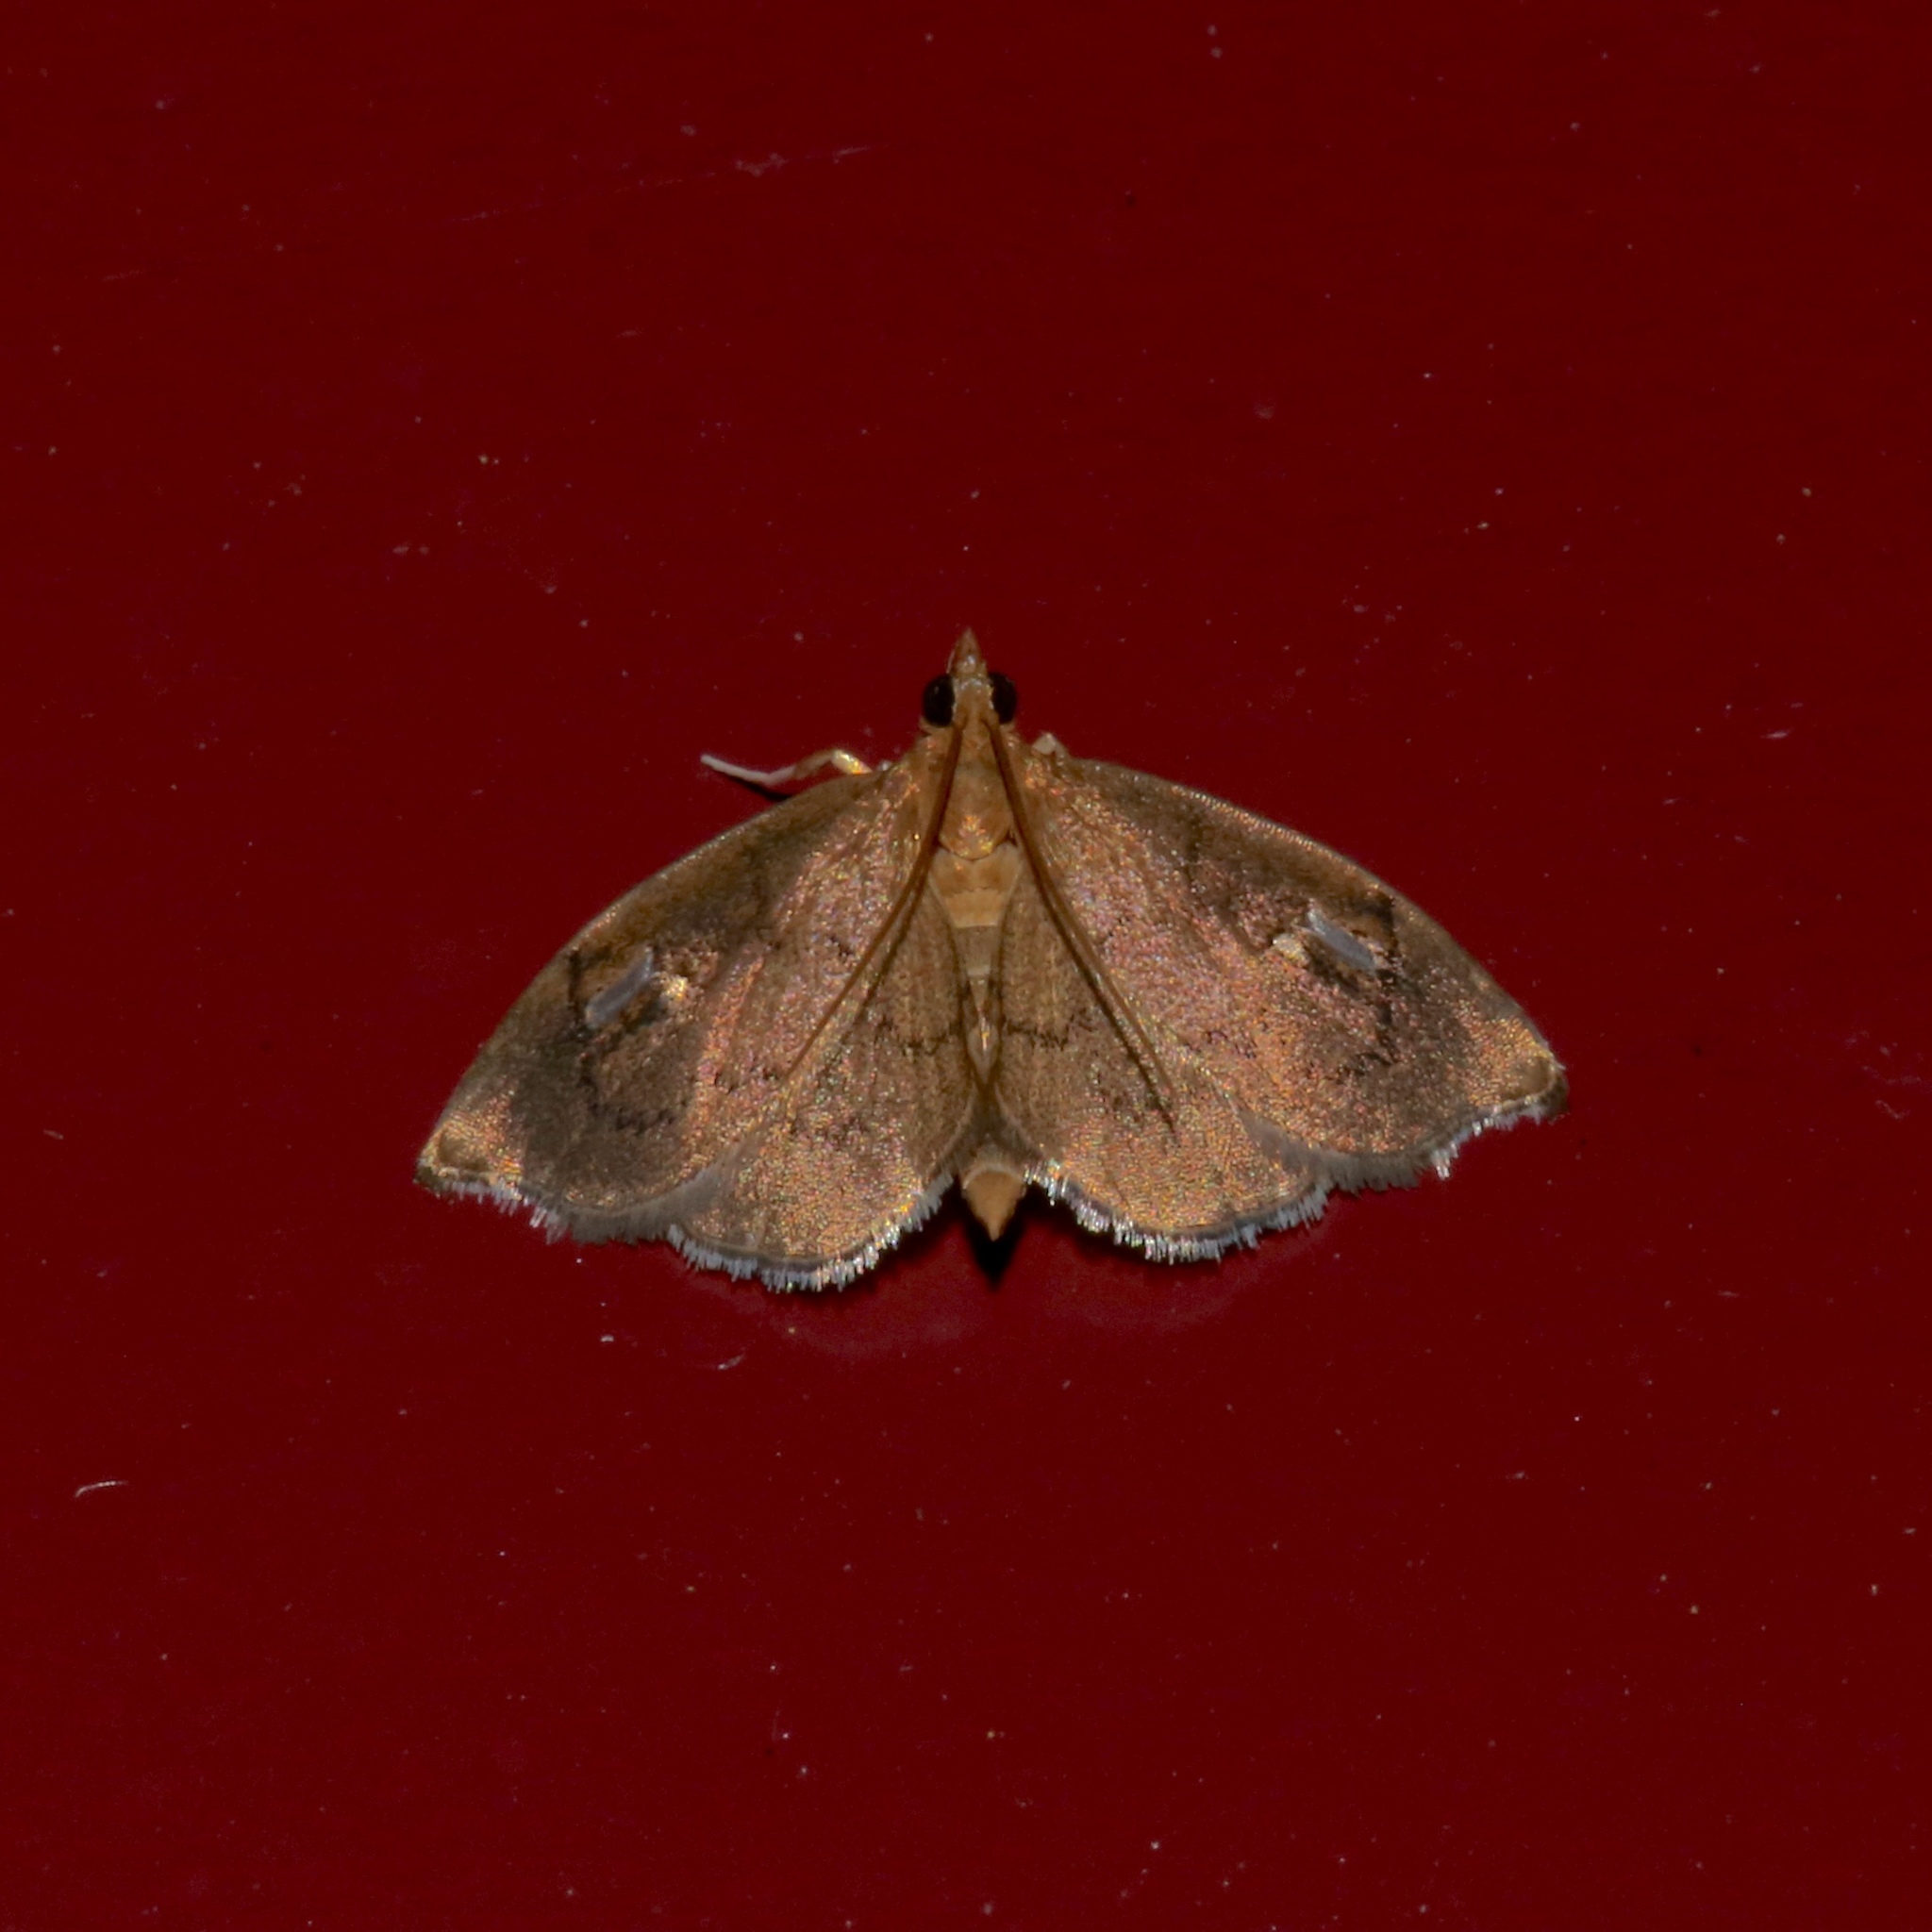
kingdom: Animalia
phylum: Arthropoda
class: Insecta
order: Lepidoptera
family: Crambidae
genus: Perispasta
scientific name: Perispasta caeculalis
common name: Titian peale's moth
